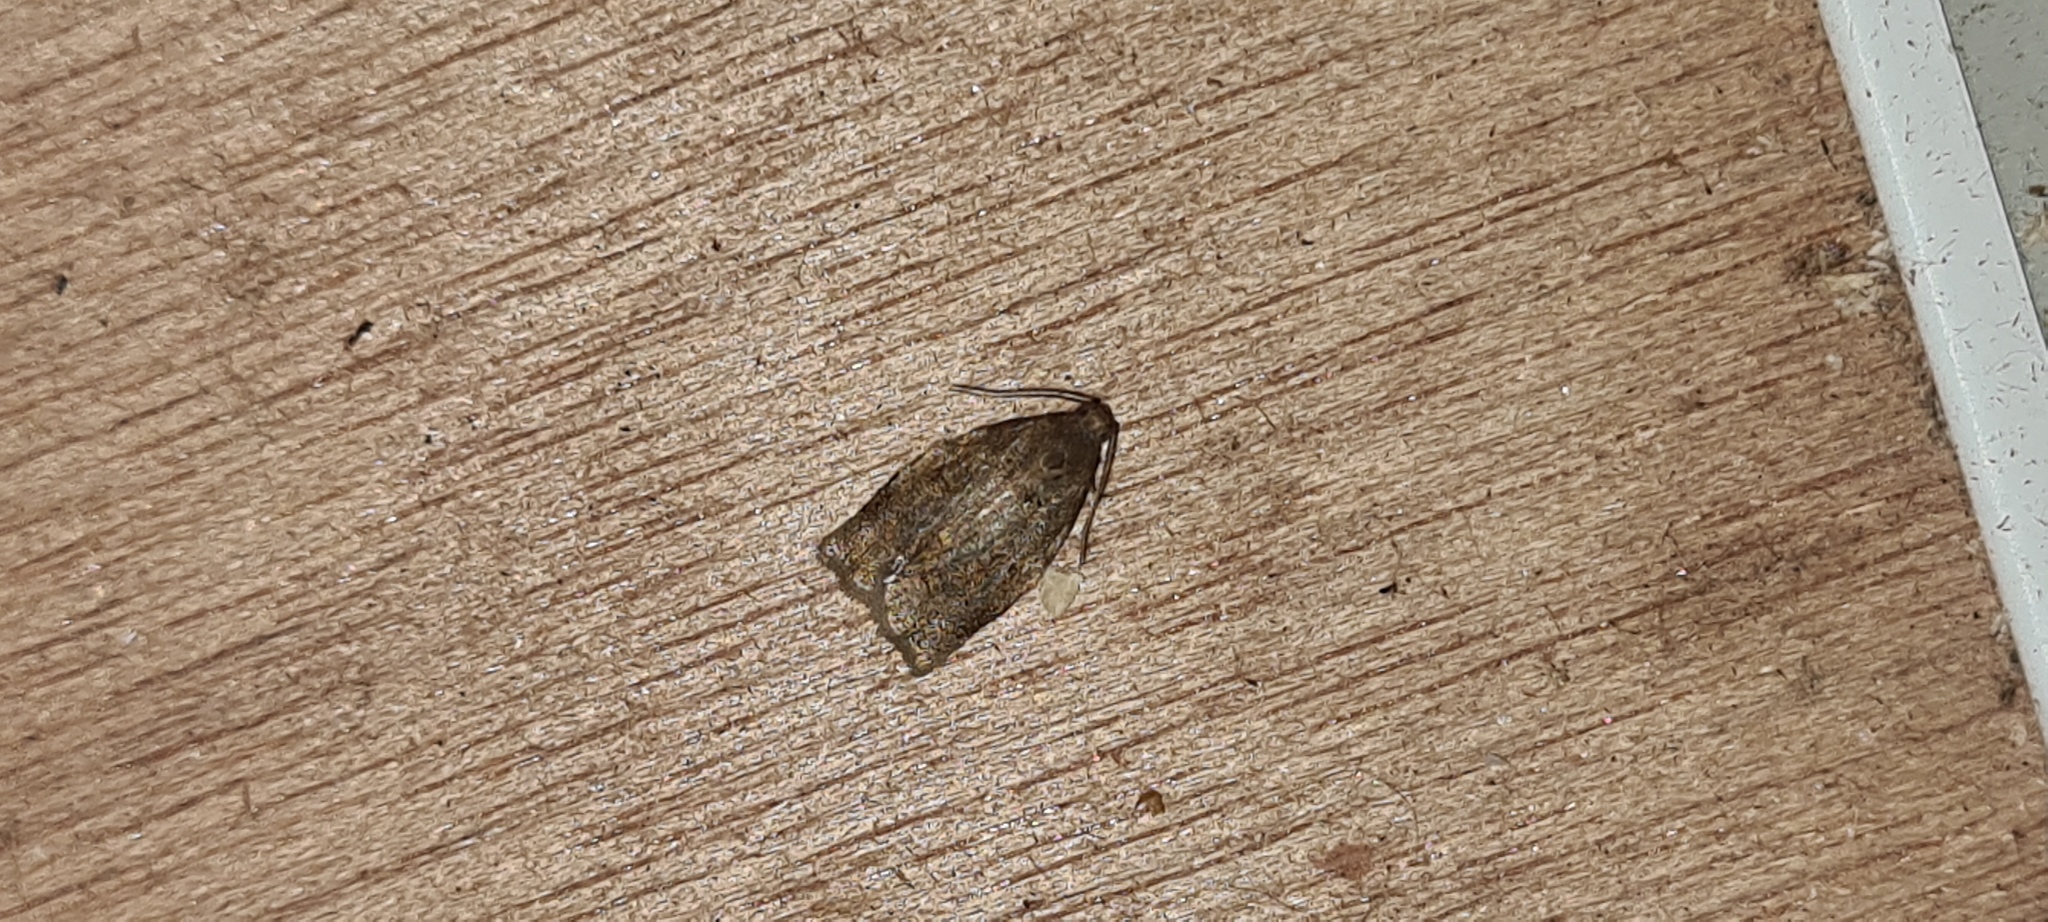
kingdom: Animalia
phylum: Arthropoda
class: Insecta
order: Lepidoptera
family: Tortricidae
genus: Archips
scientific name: Archips rosana
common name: Rose tortrix
